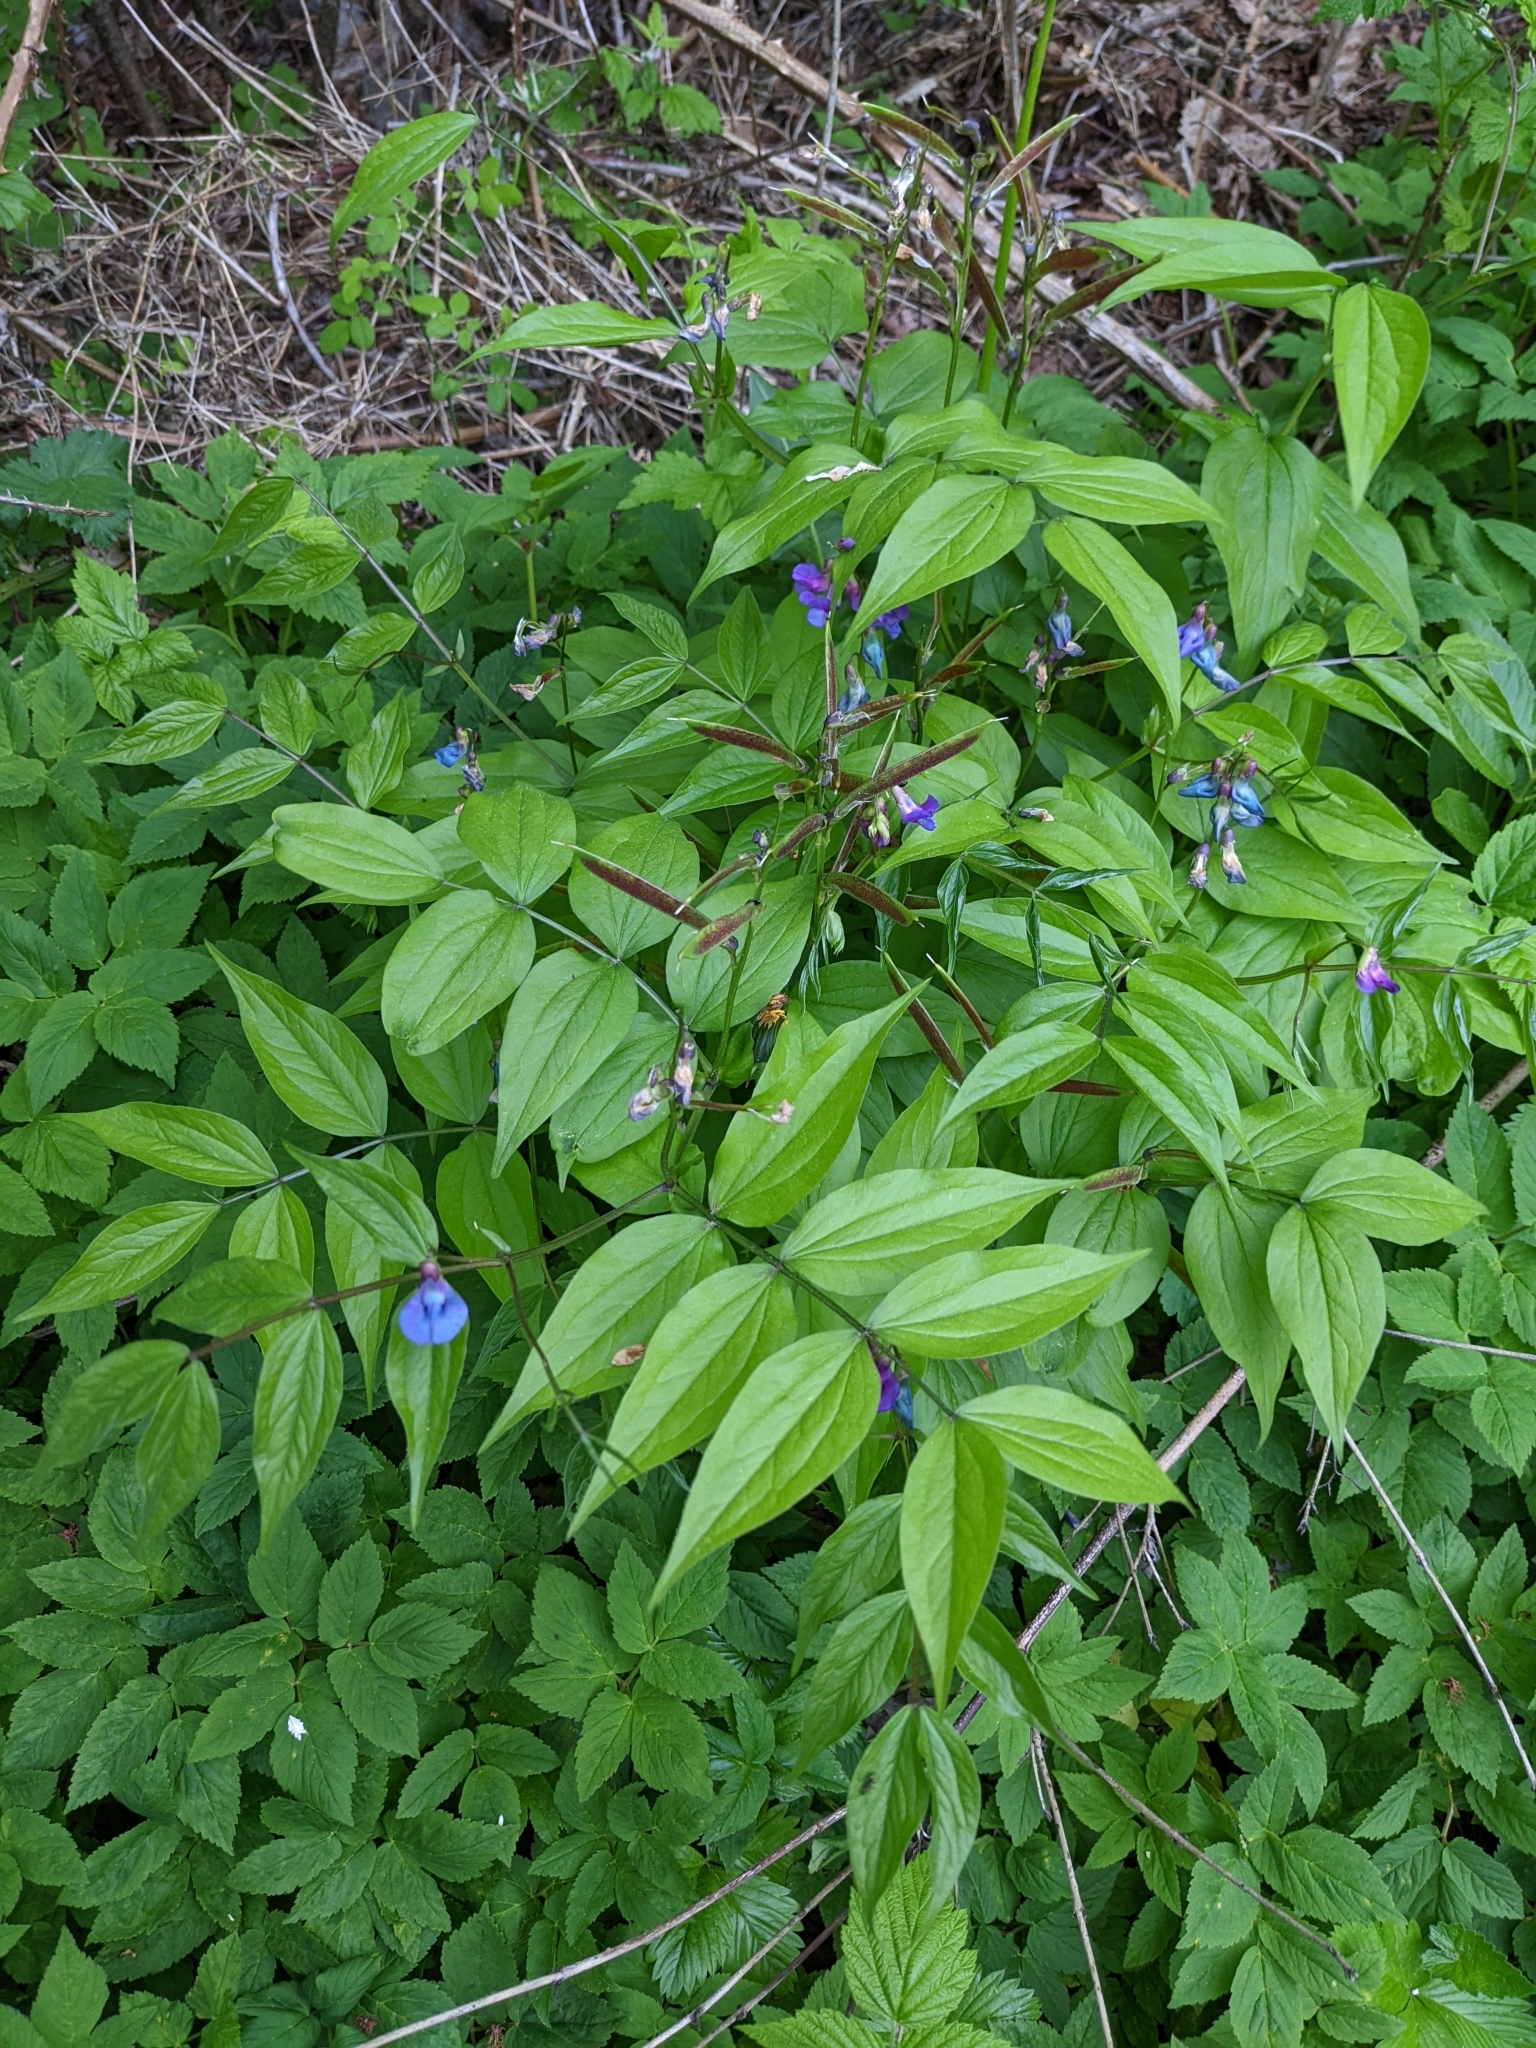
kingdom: Plantae
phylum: Tracheophyta
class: Magnoliopsida
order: Fabales
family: Fabaceae
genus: Lathyrus
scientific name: Lathyrus vernus
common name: Spring pea
